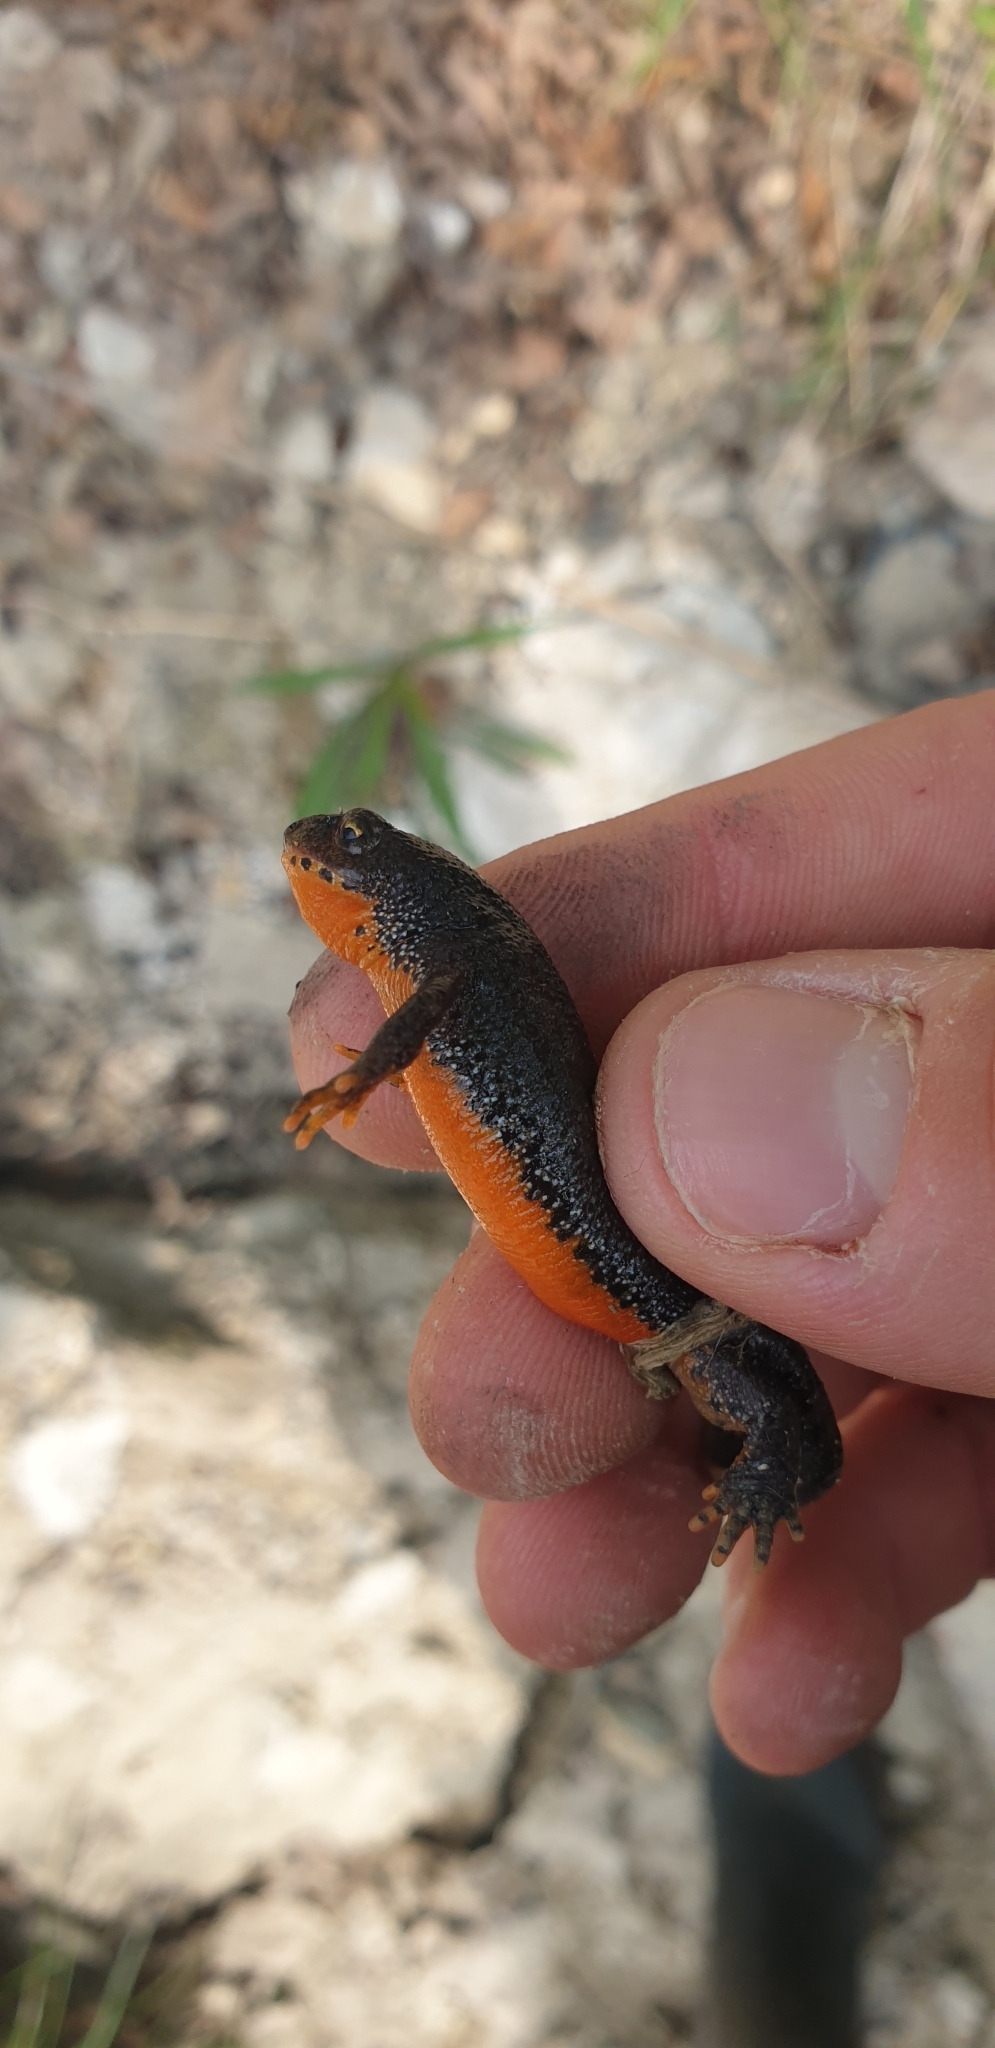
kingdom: Animalia
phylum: Chordata
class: Amphibia
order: Caudata
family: Salamandridae
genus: Ichthyosaura
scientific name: Ichthyosaura alpestris
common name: Alpine newt
